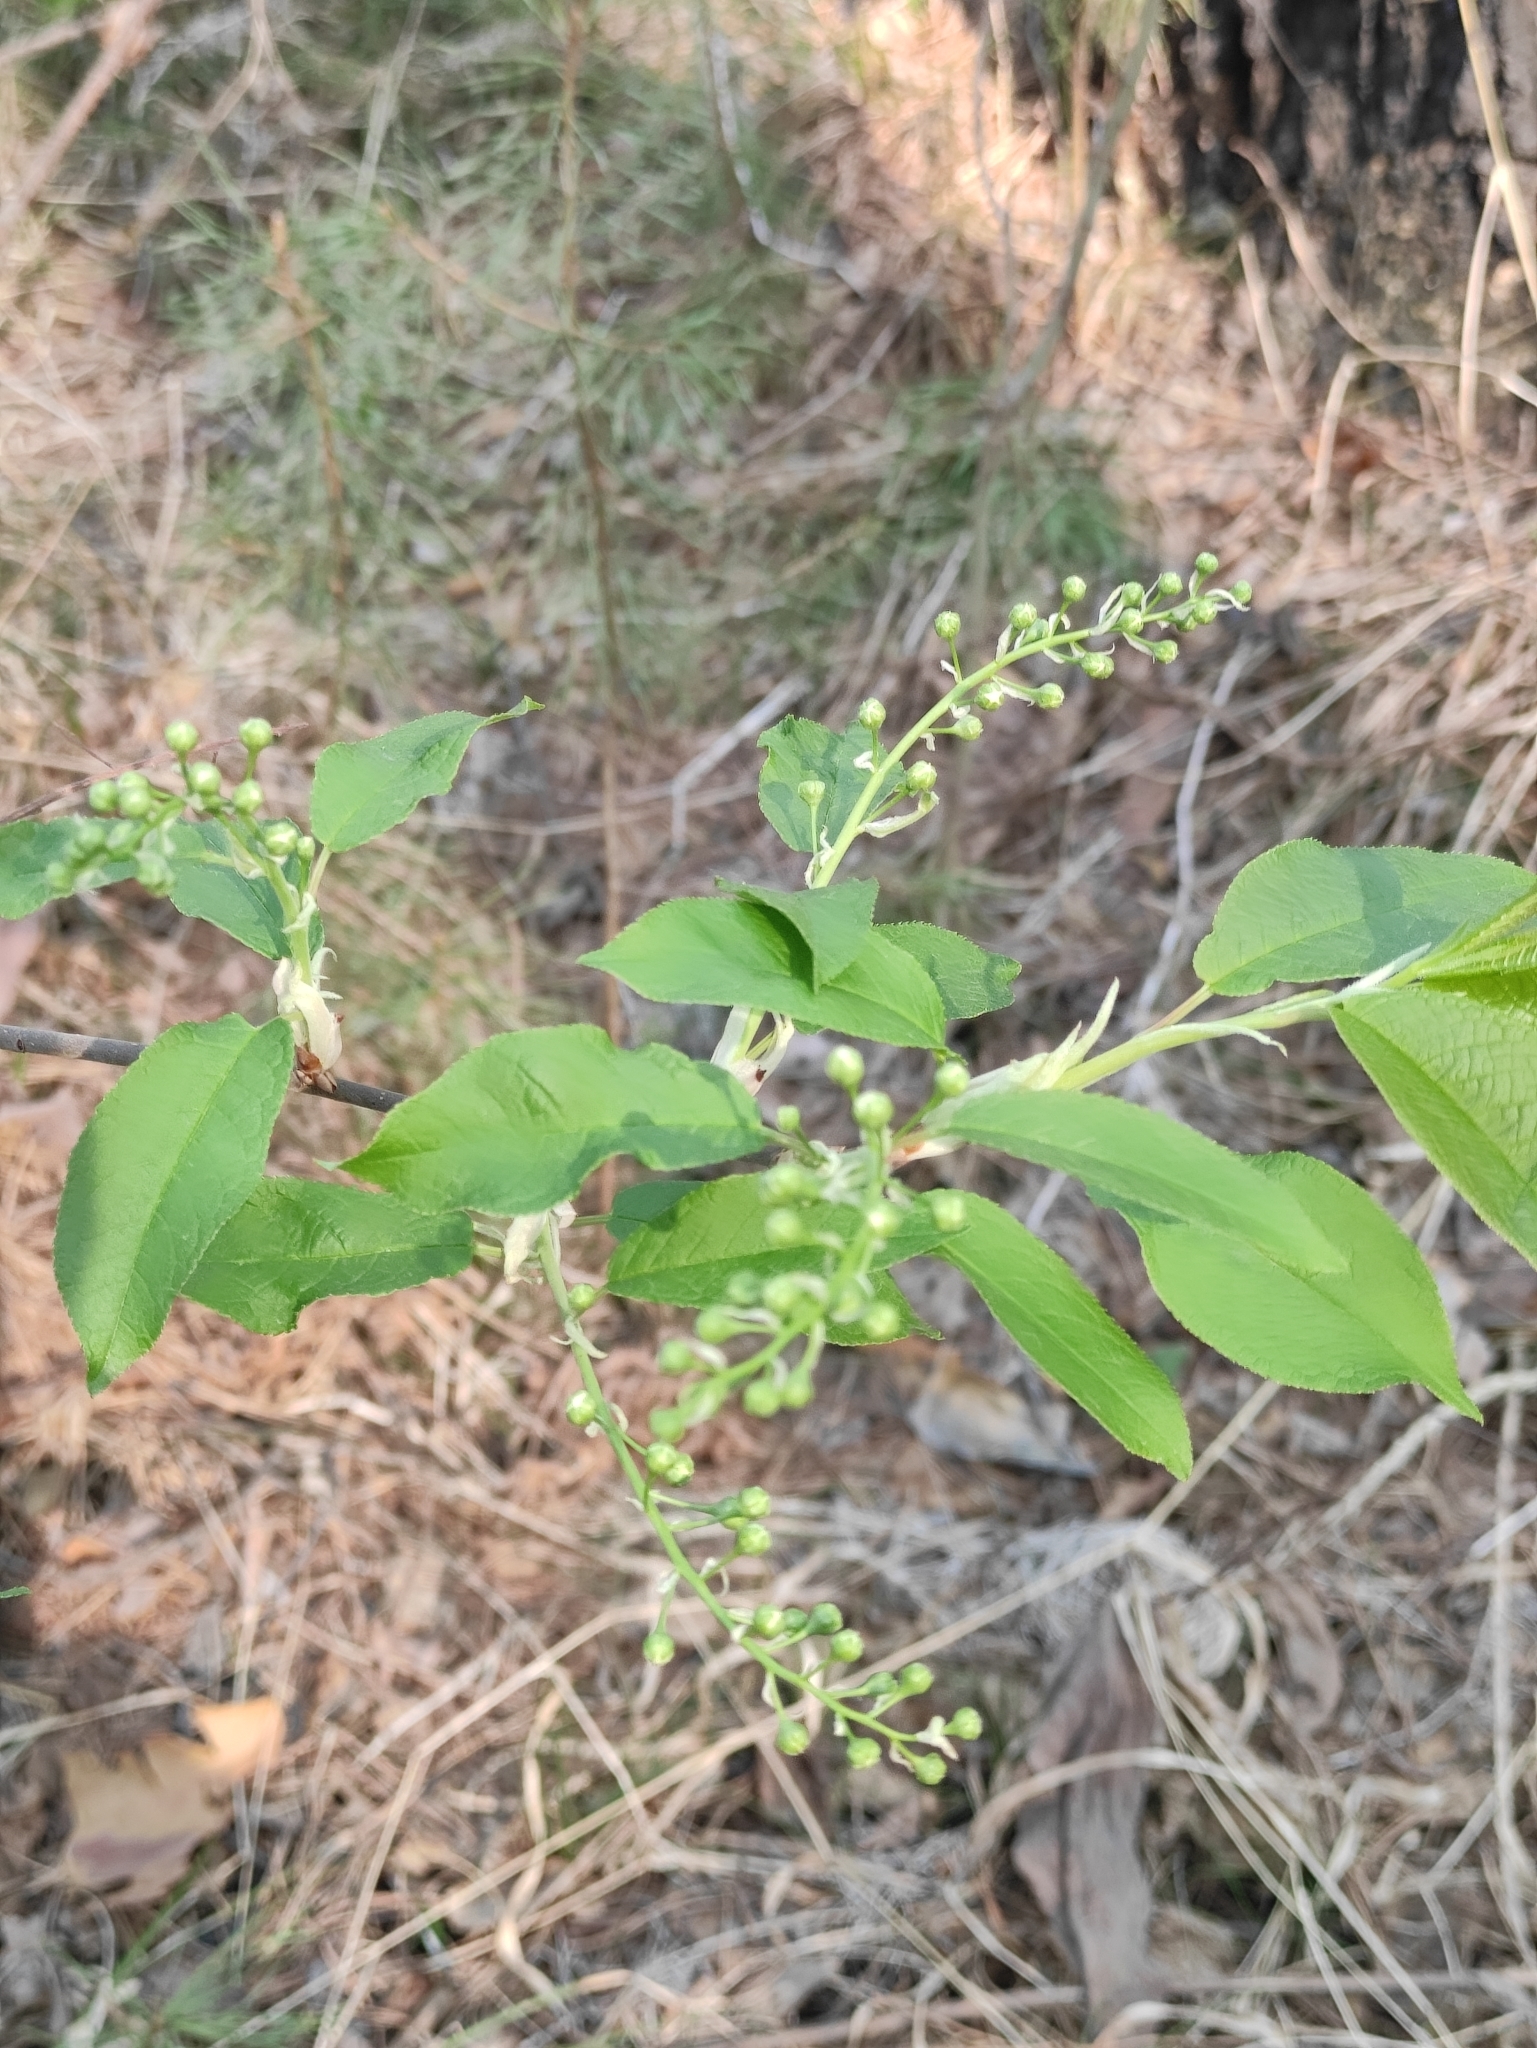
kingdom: Plantae
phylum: Tracheophyta
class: Magnoliopsida
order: Rosales
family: Rosaceae
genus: Prunus
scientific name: Prunus padus
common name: Bird cherry
